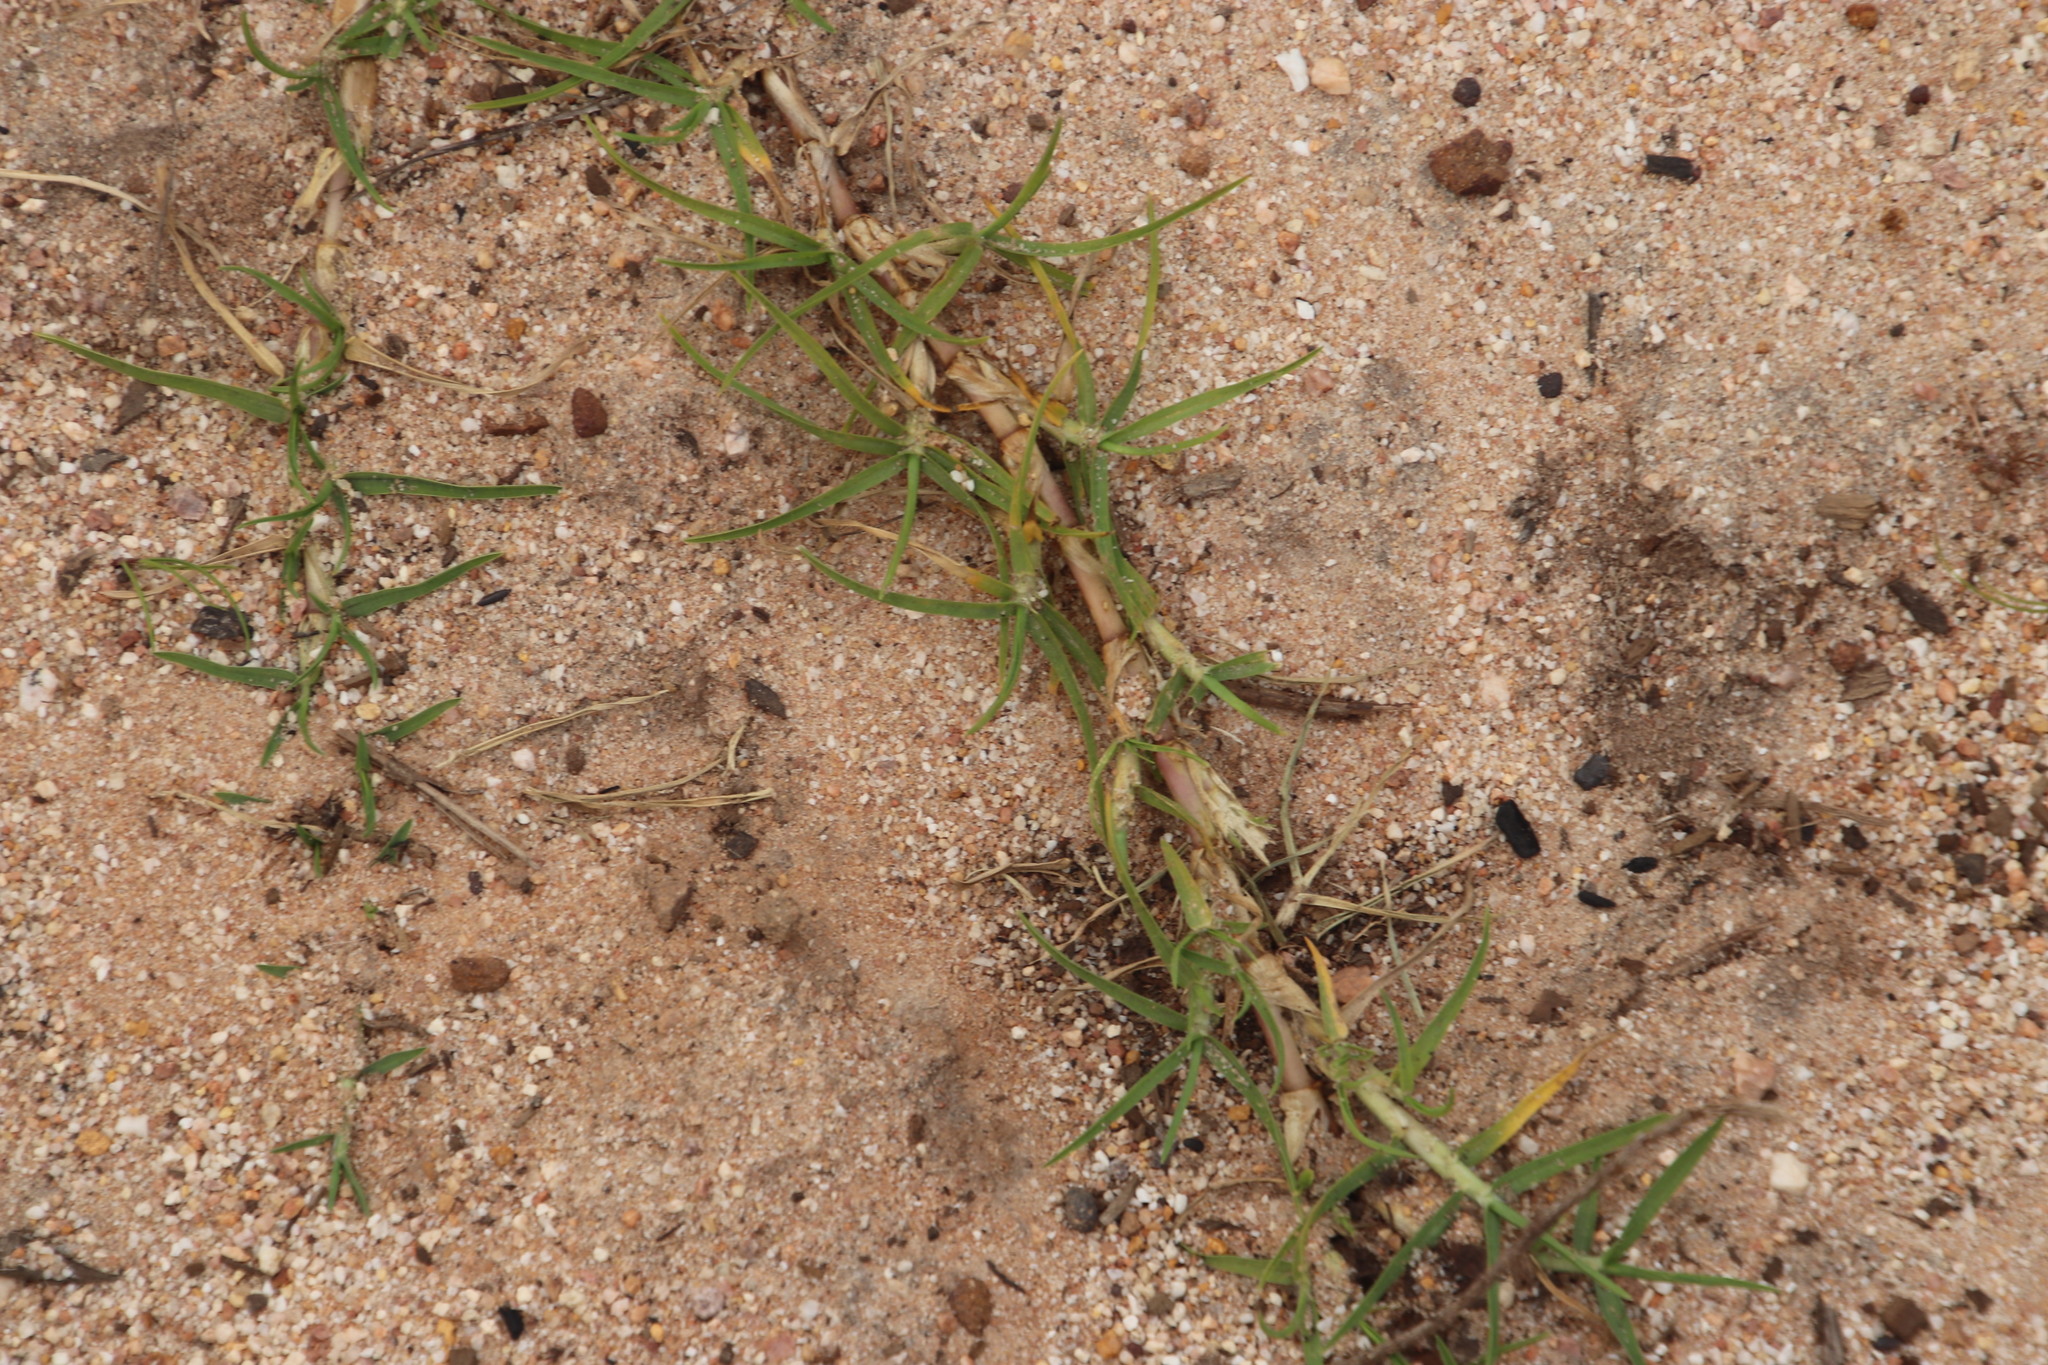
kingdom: Plantae
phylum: Tracheophyta
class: Liliopsida
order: Poales
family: Poaceae
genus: Cenchrus
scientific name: Cenchrus clandestinus
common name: Kikuyugrass
